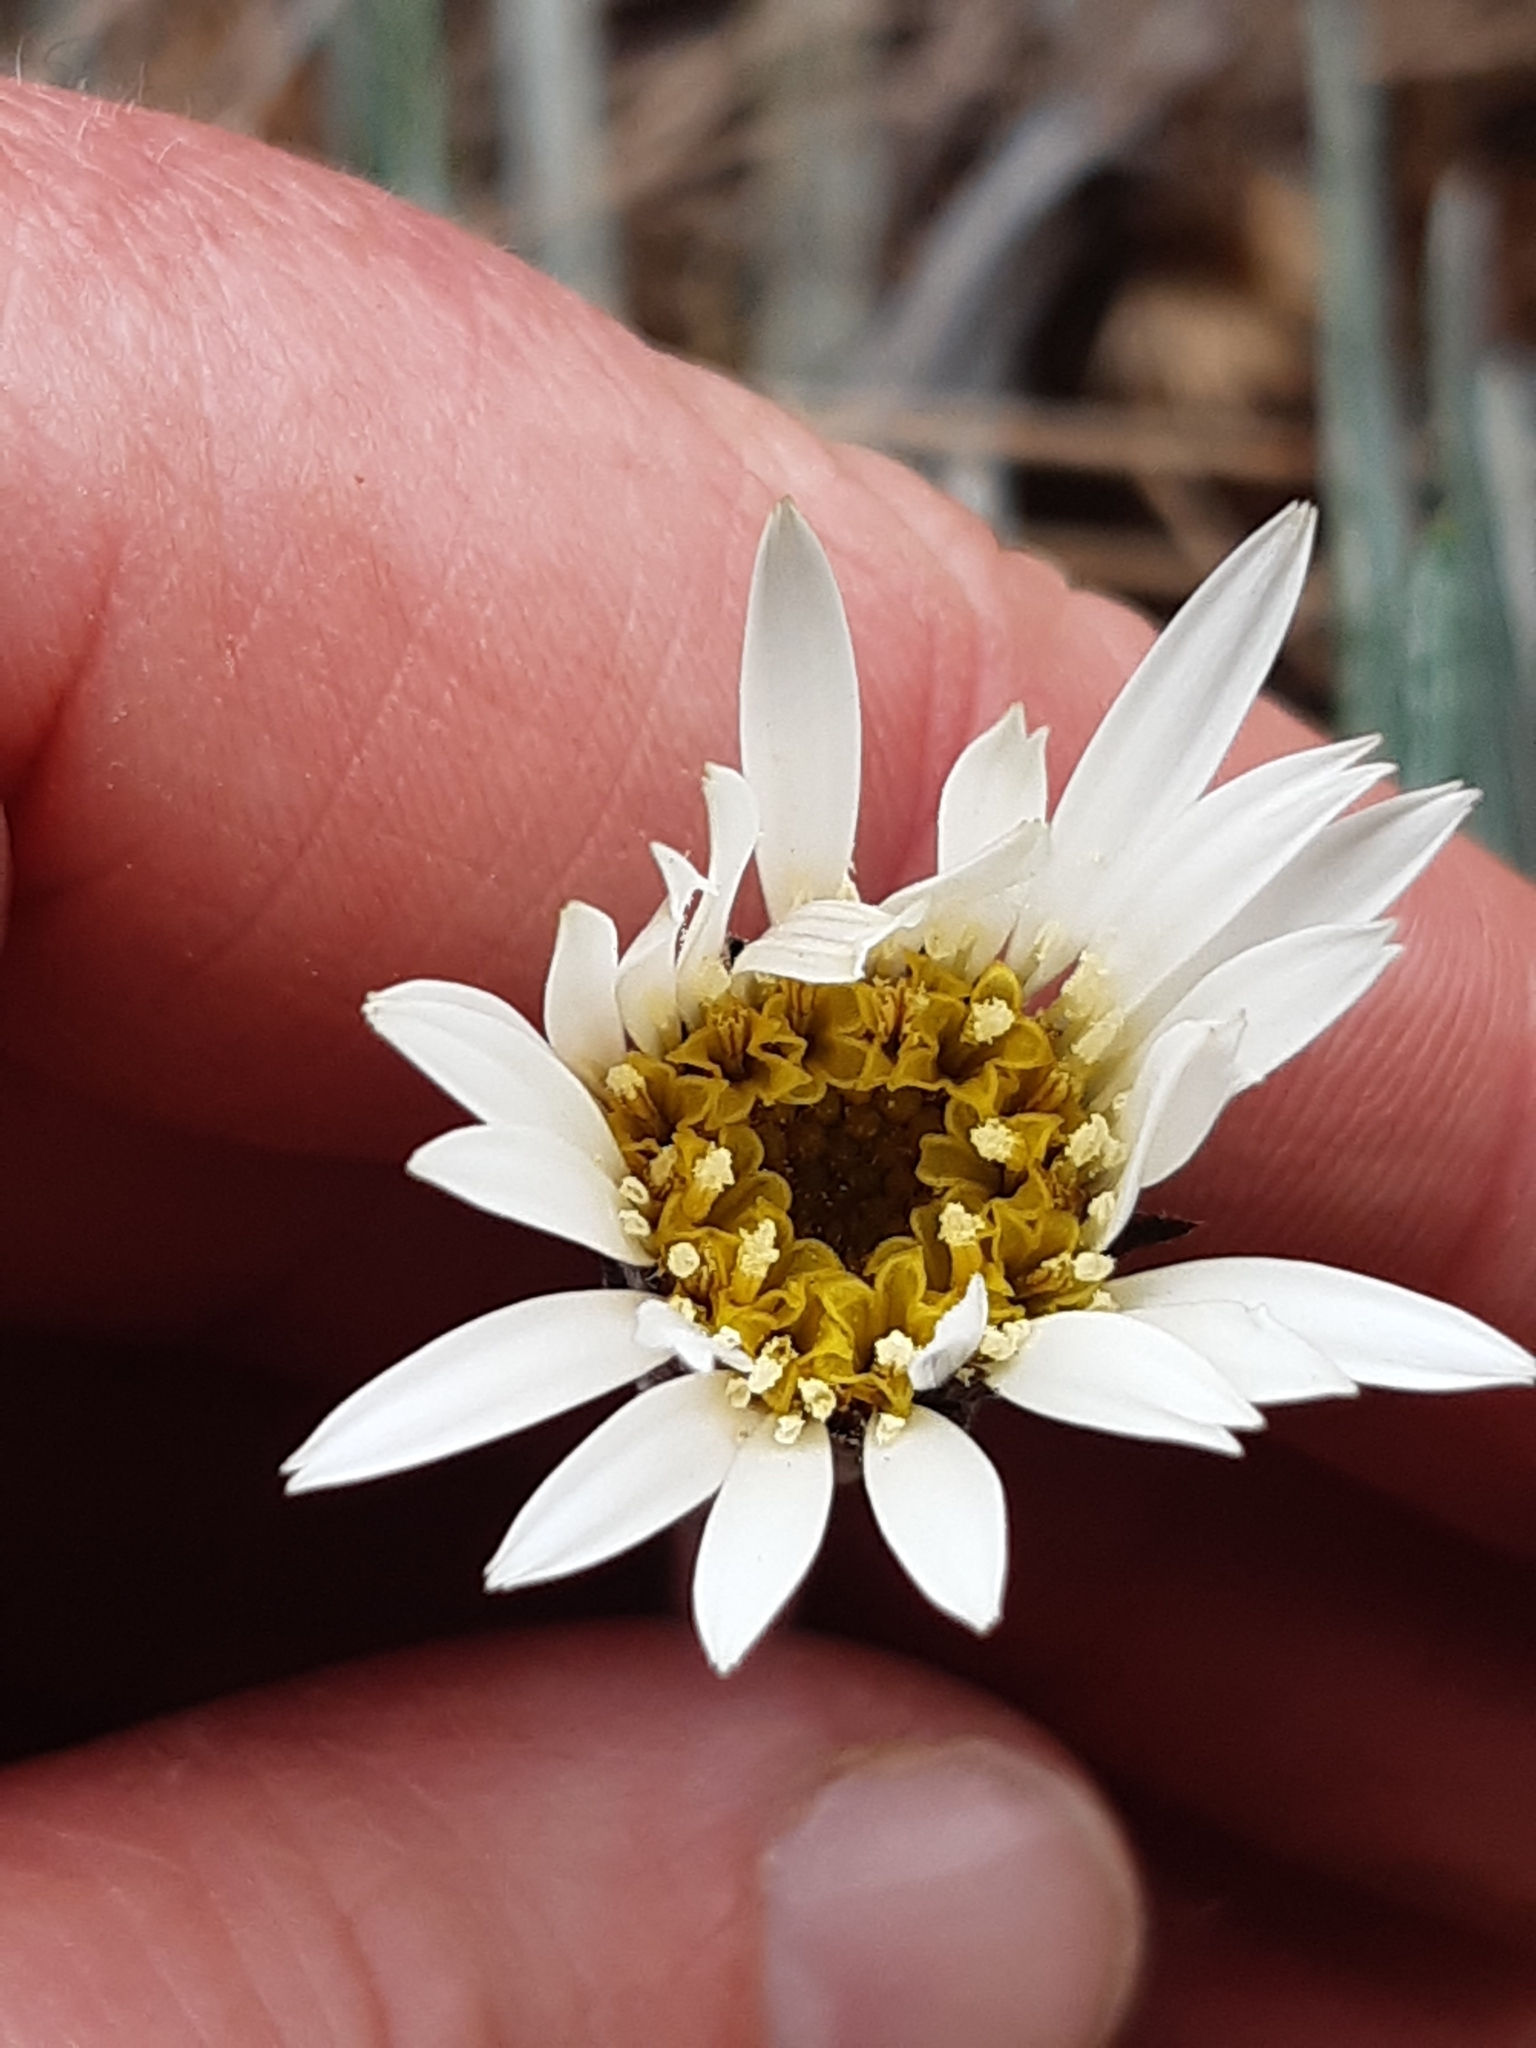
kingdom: Plantae
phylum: Tracheophyta
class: Magnoliopsida
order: Asterales
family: Asteraceae
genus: Celmisia
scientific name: Celmisia gracilenta
